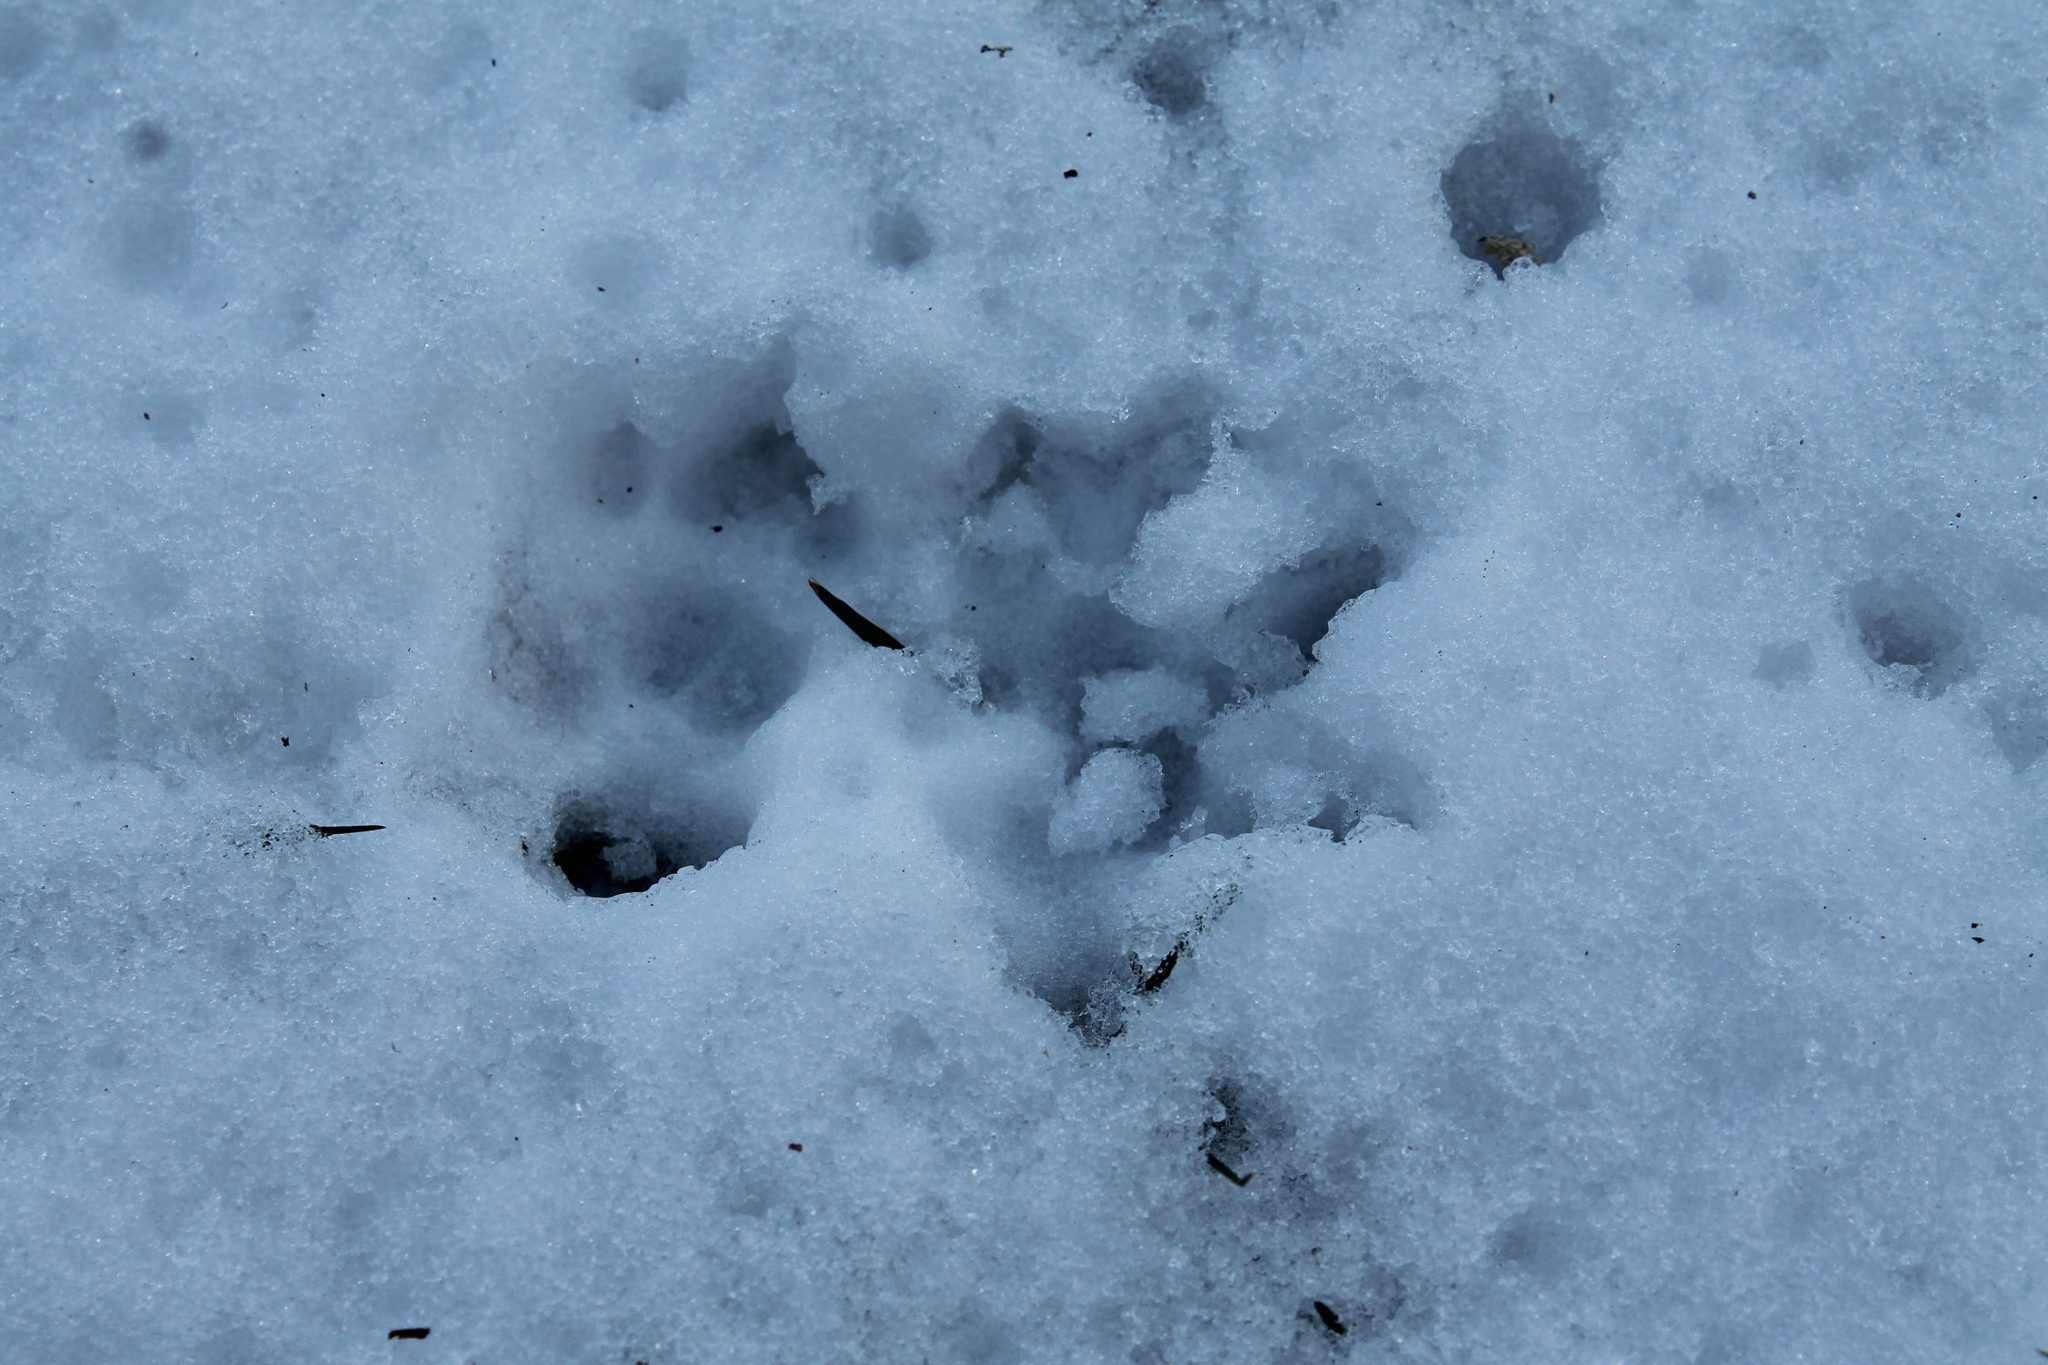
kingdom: Animalia
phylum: Chordata
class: Mammalia
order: Didelphimorphia
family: Didelphidae
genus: Didelphis
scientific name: Didelphis virginiana
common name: Virginia opossum
